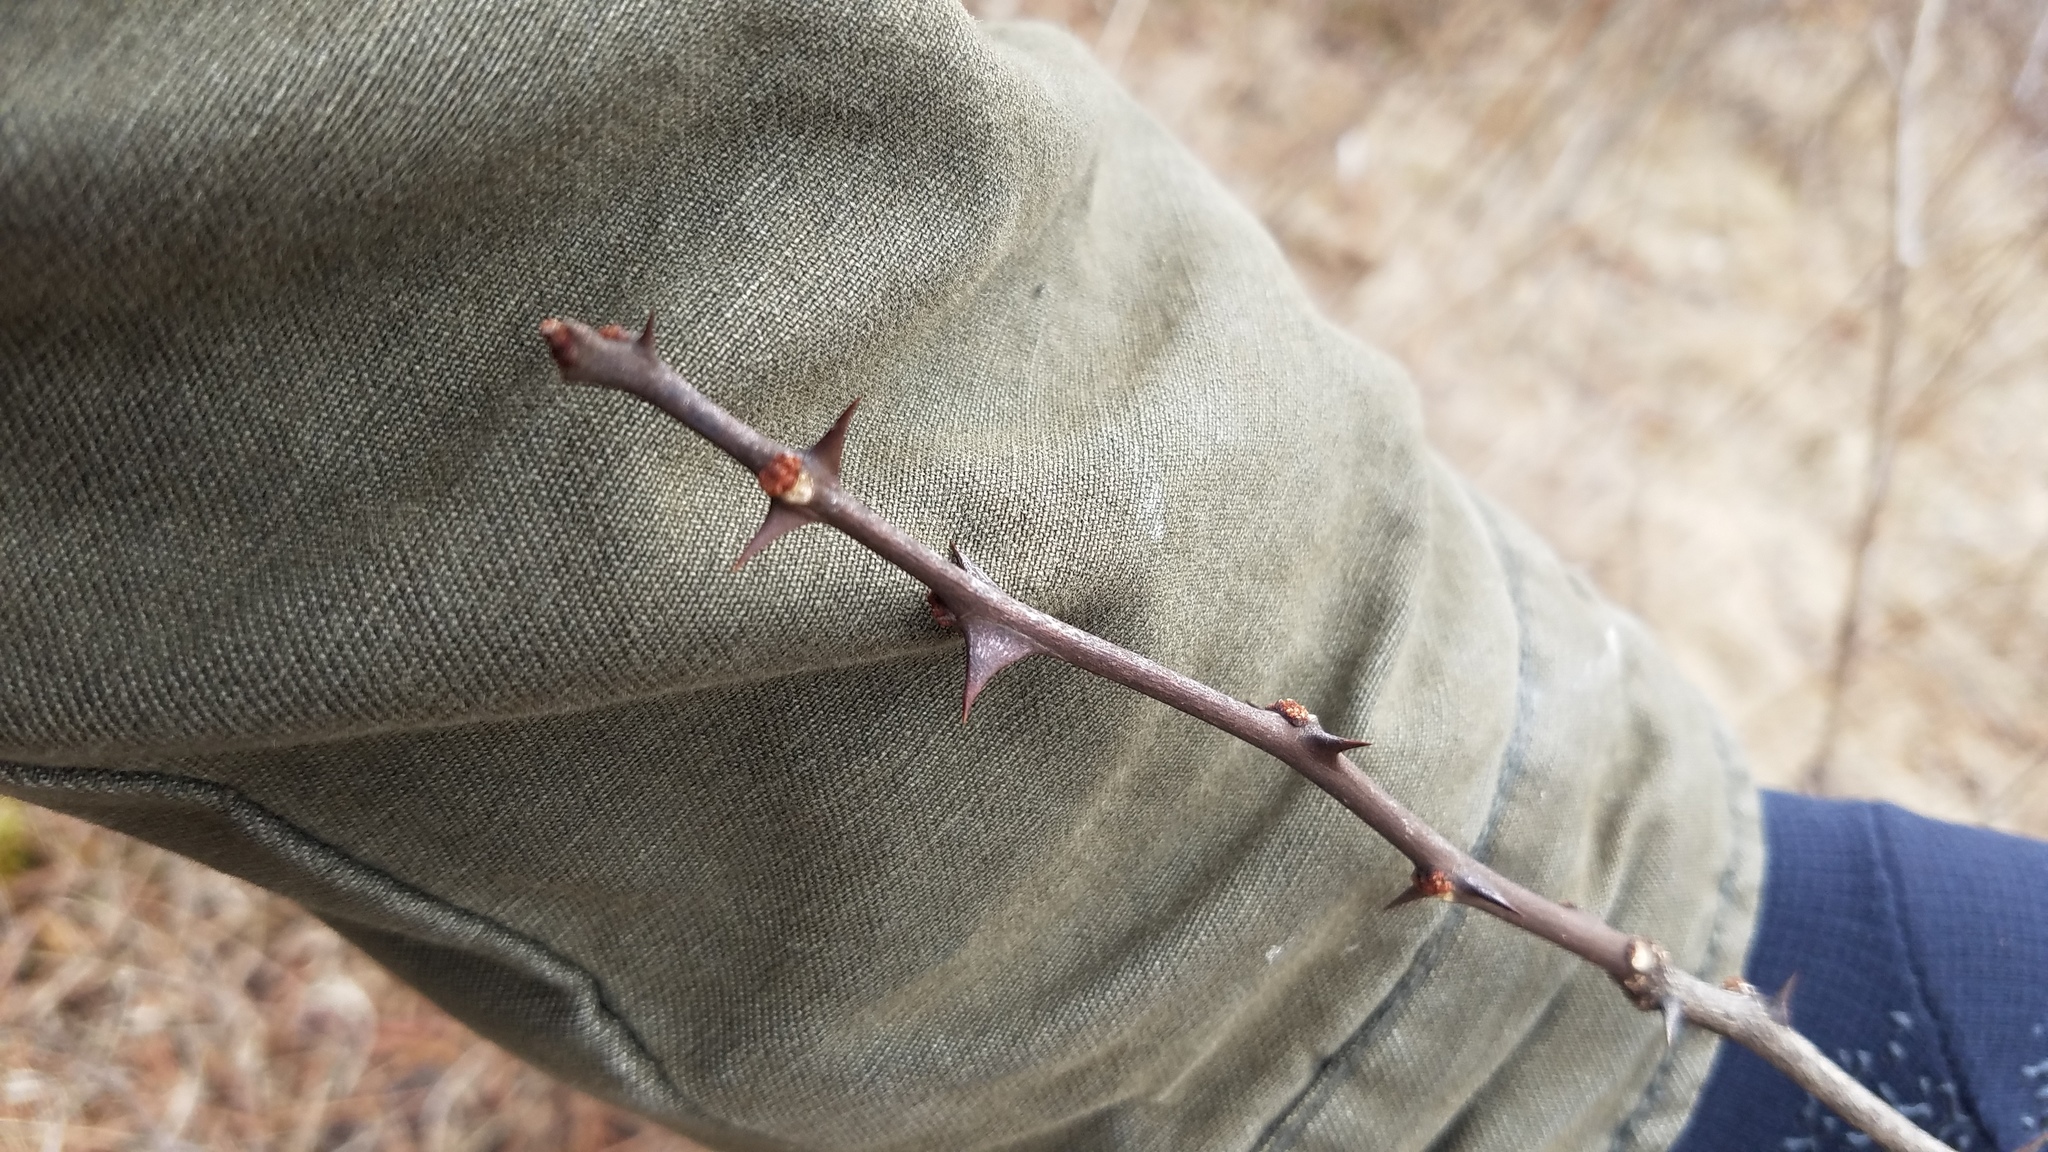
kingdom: Plantae
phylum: Tracheophyta
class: Magnoliopsida
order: Sapindales
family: Rutaceae
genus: Zanthoxylum
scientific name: Zanthoxylum americanum
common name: Northern prickly-ash
